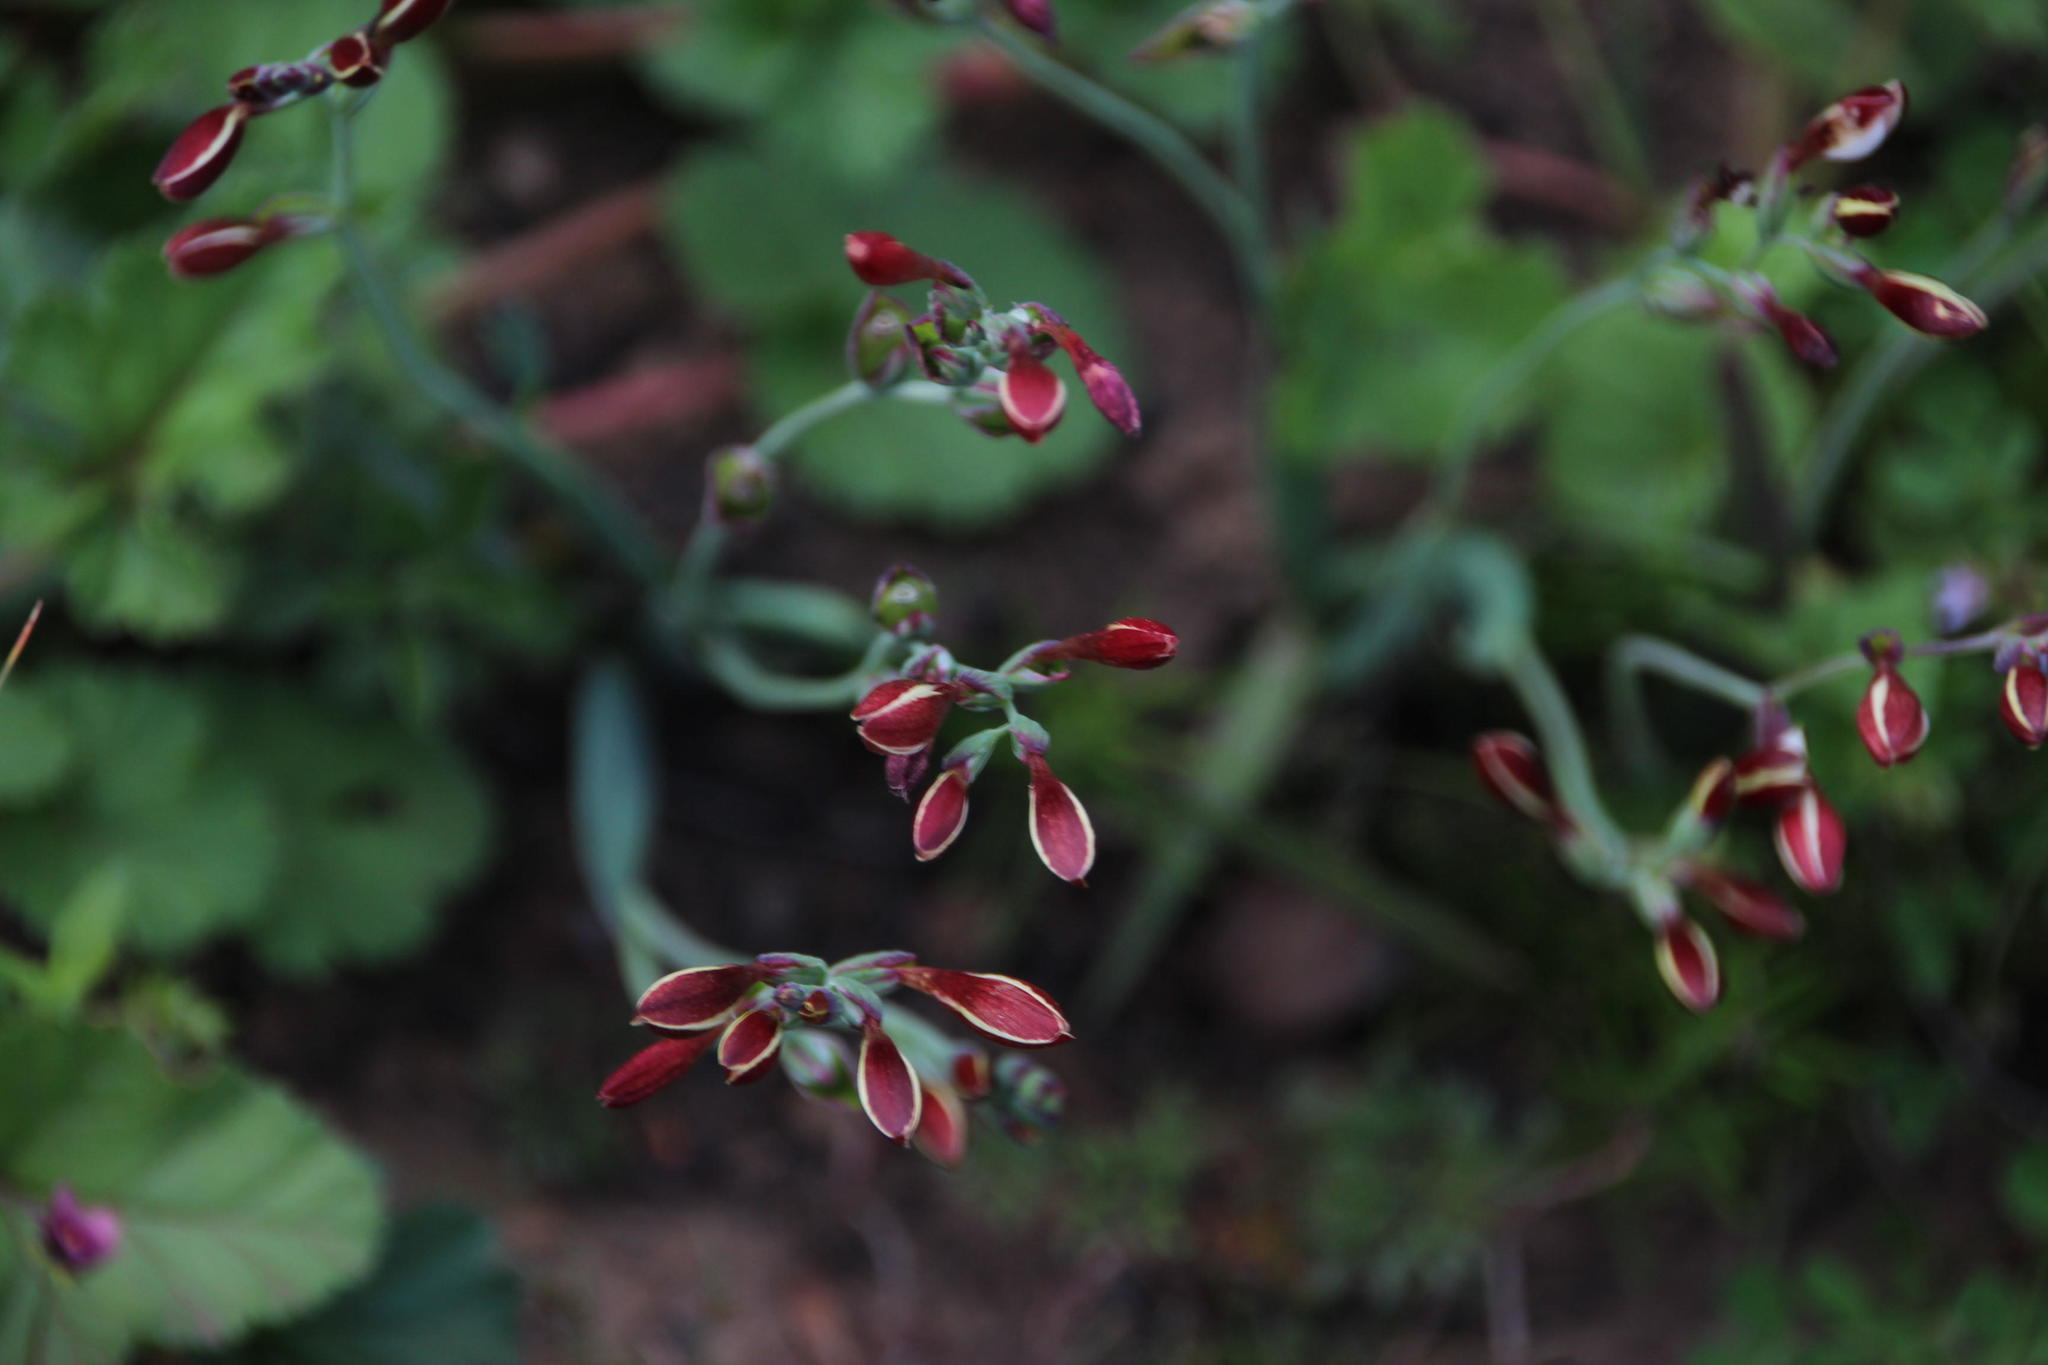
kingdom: Plantae
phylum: Tracheophyta
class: Liliopsida
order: Asparagales
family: Iridaceae
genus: Hesperantha
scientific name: Hesperantha falcata
